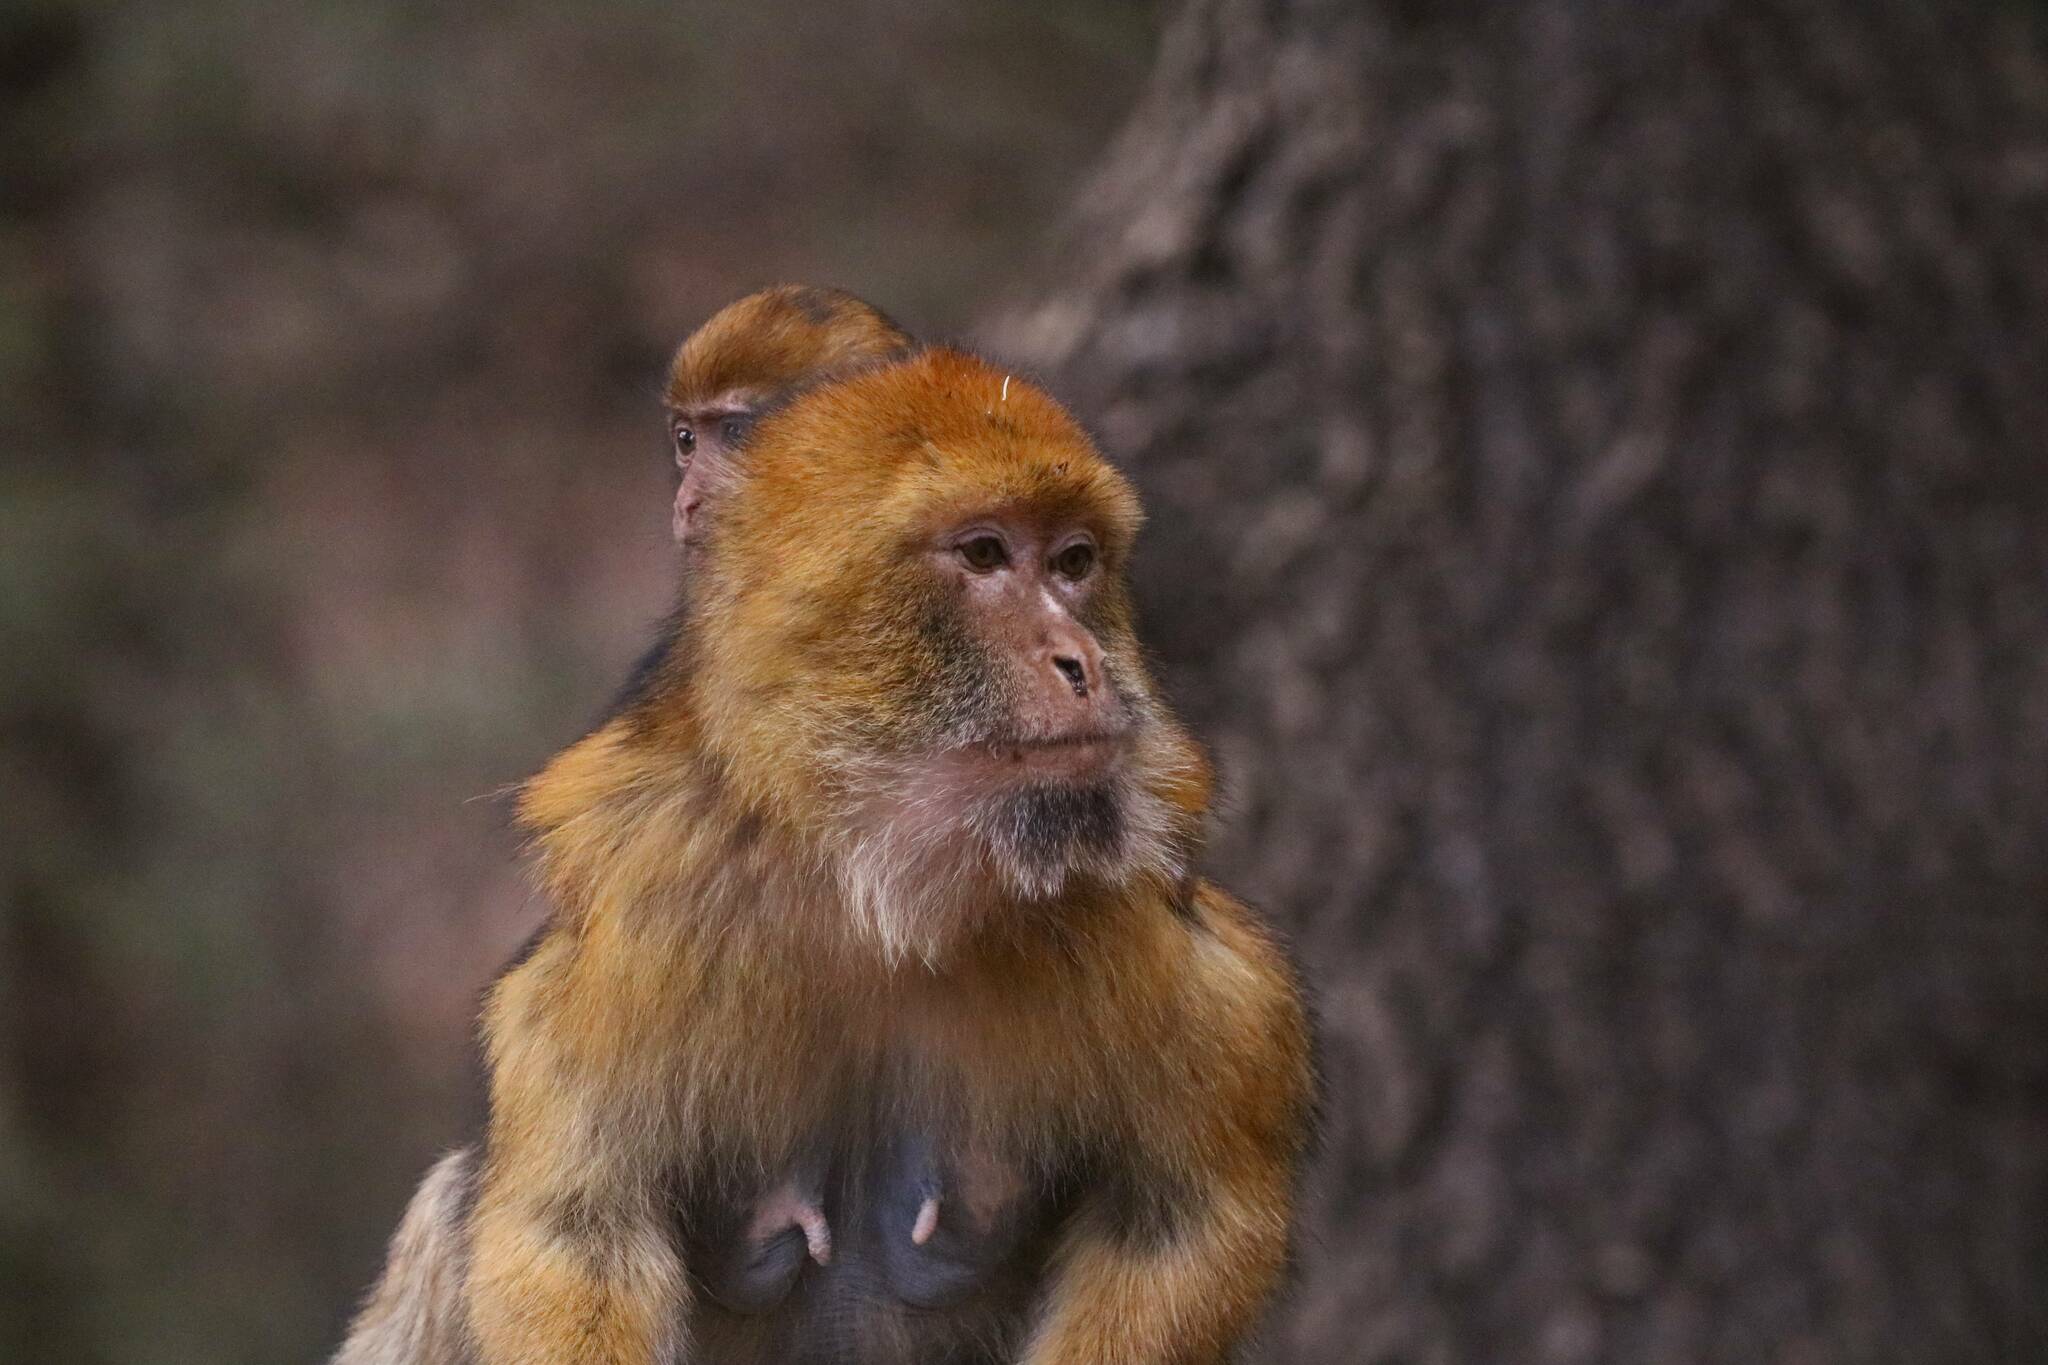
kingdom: Animalia
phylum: Chordata
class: Mammalia
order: Primates
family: Cercopithecidae
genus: Macaca
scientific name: Macaca sylvanus
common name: Barbary macaque
